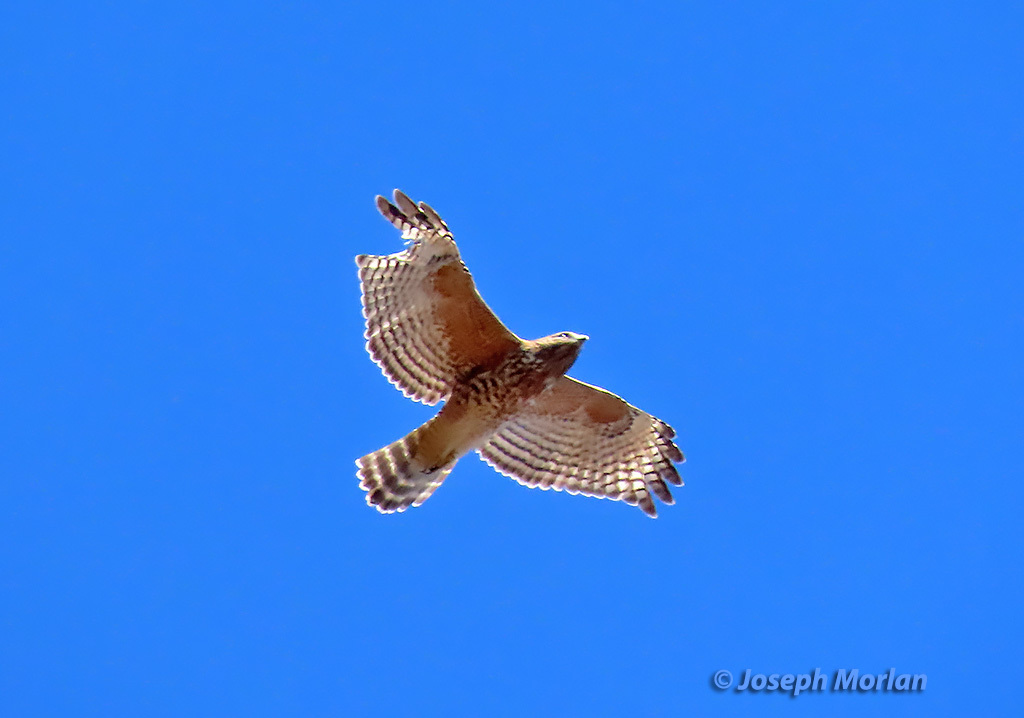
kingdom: Animalia
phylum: Chordata
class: Aves
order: Accipitriformes
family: Accipitridae
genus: Buteo
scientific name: Buteo lineatus
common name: Red-shouldered hawk
